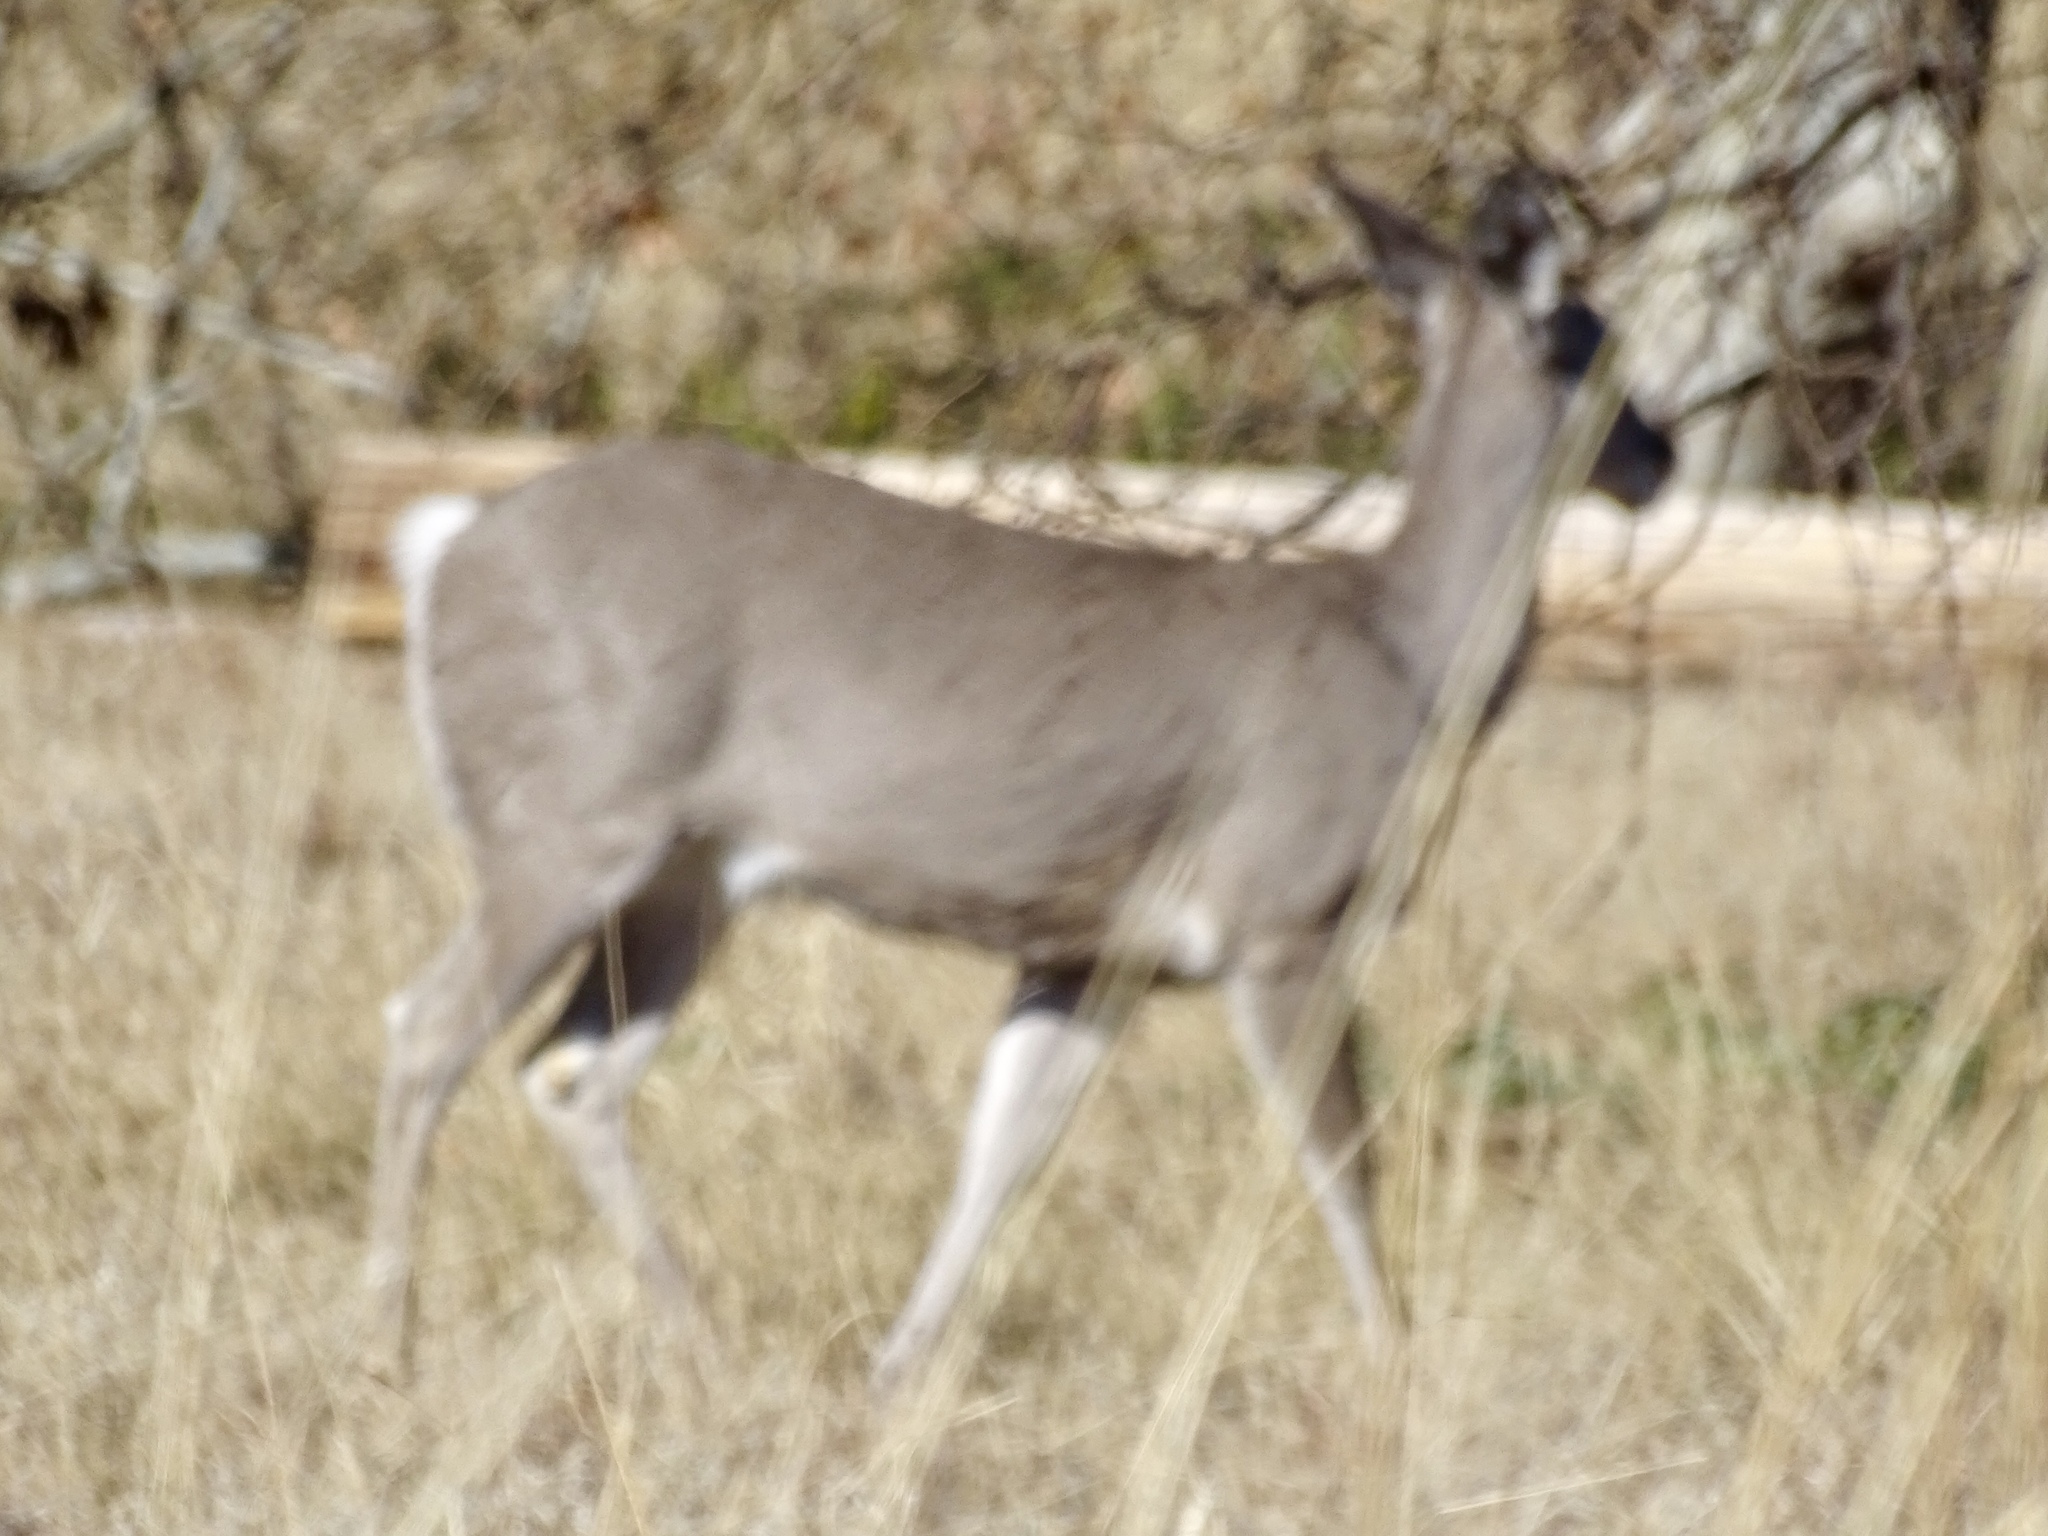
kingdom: Animalia
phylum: Chordata
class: Mammalia
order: Artiodactyla
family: Cervidae
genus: Odocoileus
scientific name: Odocoileus virginianus
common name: White-tailed deer
